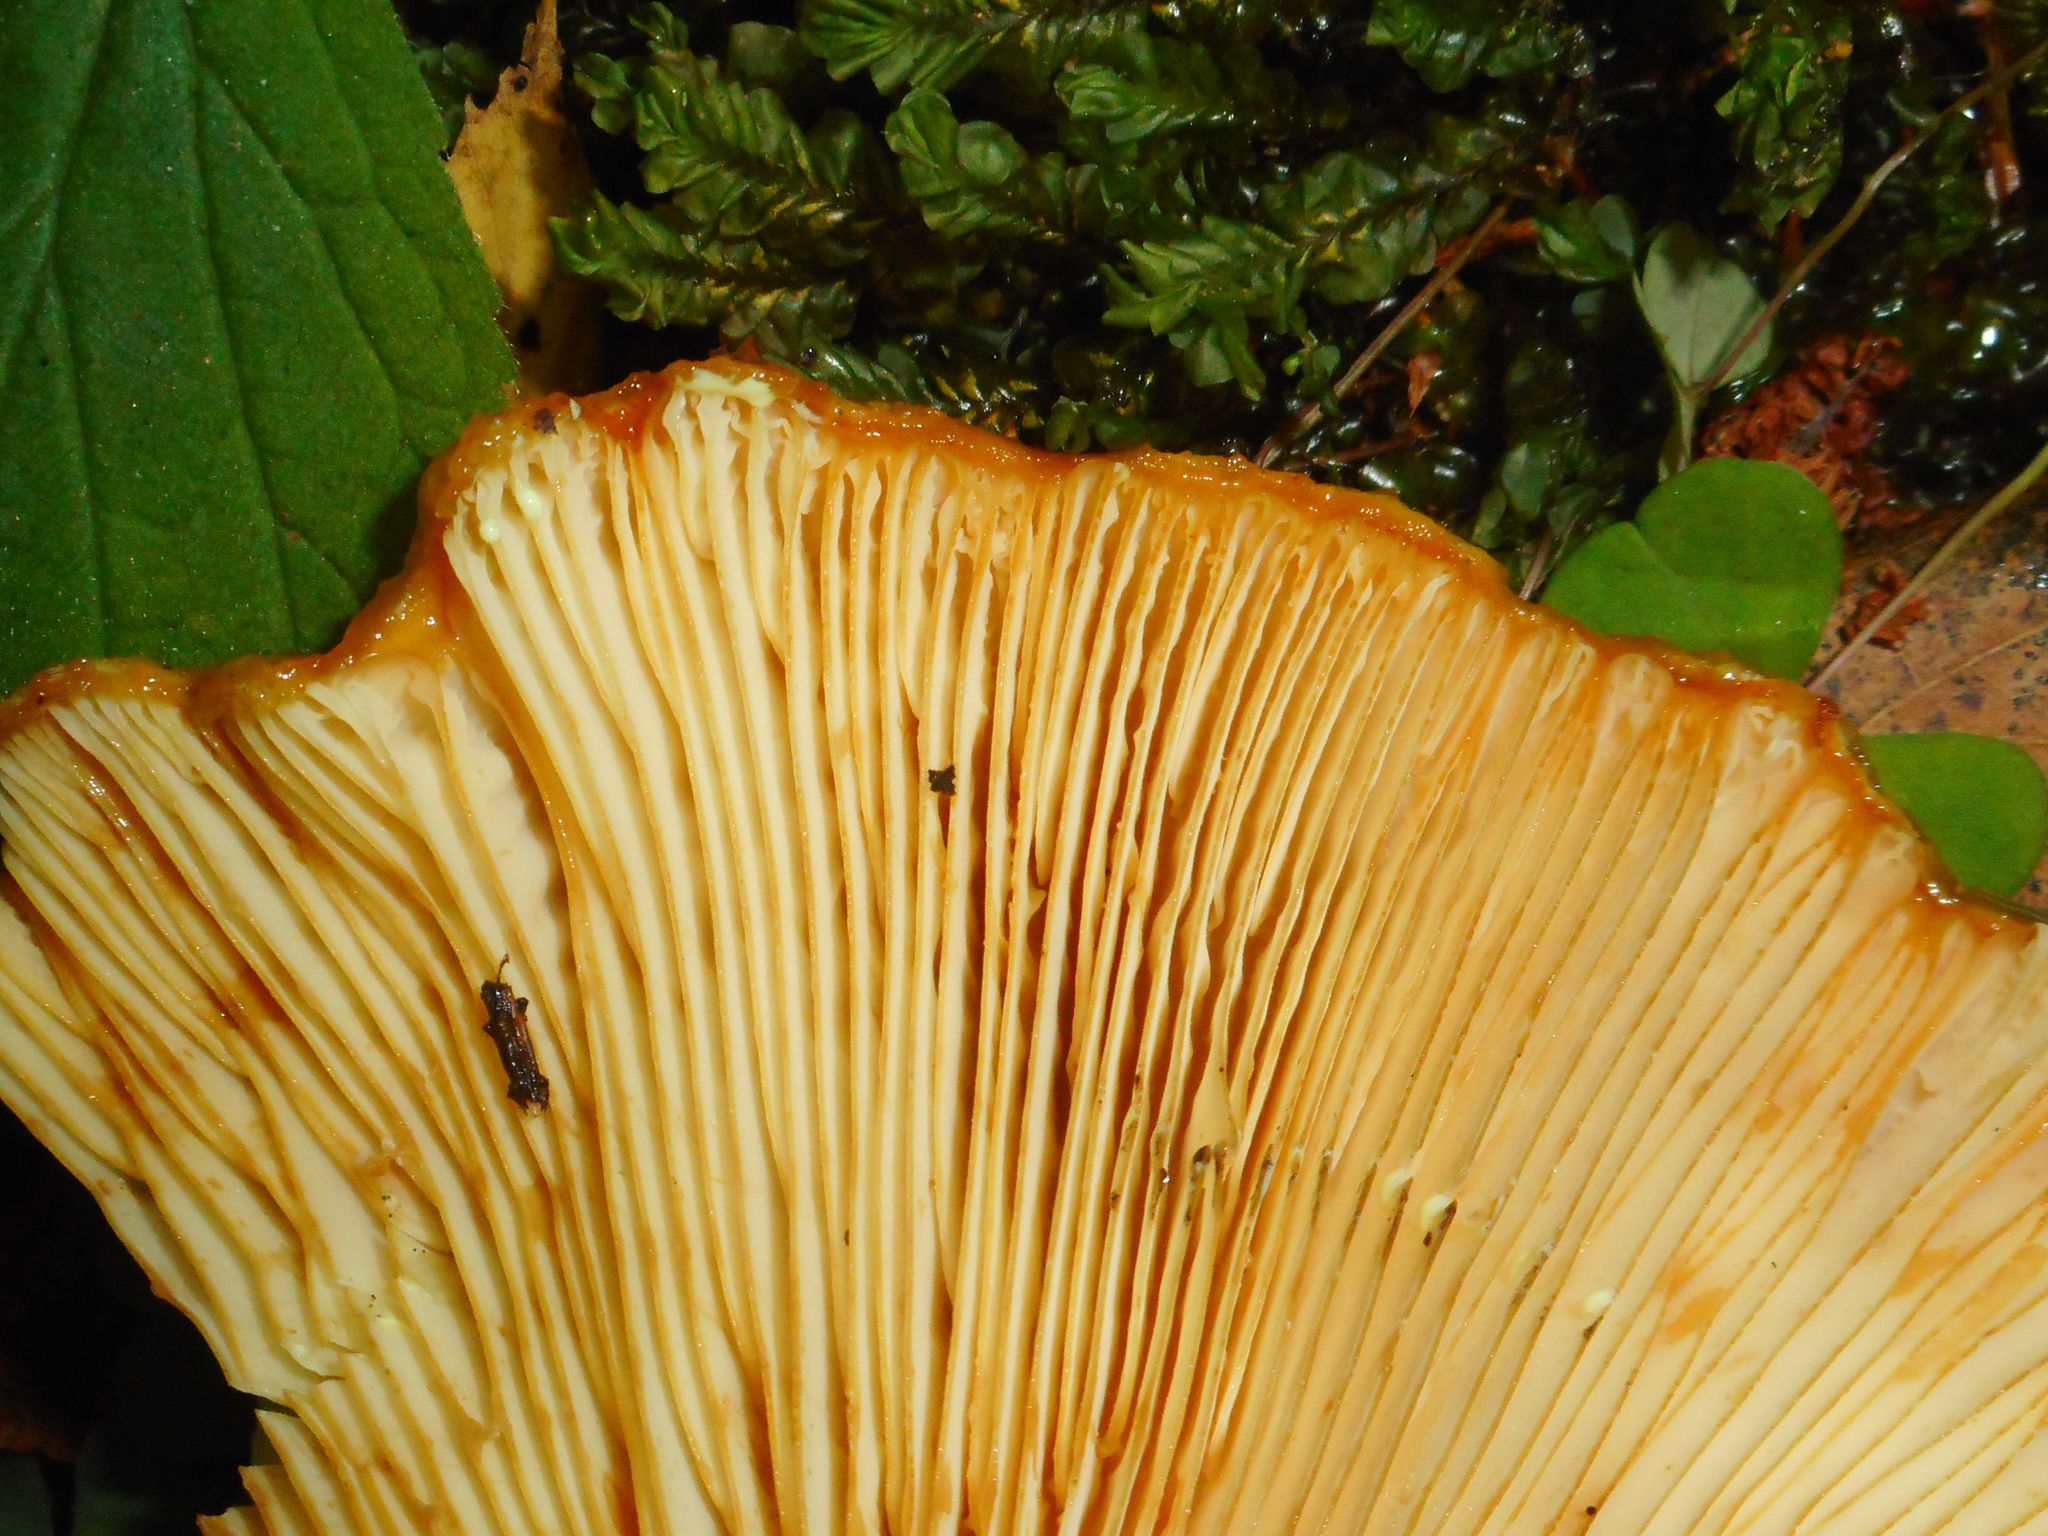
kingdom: Fungi
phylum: Basidiomycota
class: Agaricomycetes
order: Russulales
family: Russulaceae
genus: Lactarius
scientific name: Lactarius scrobiculatus
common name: Spotted milkcap
